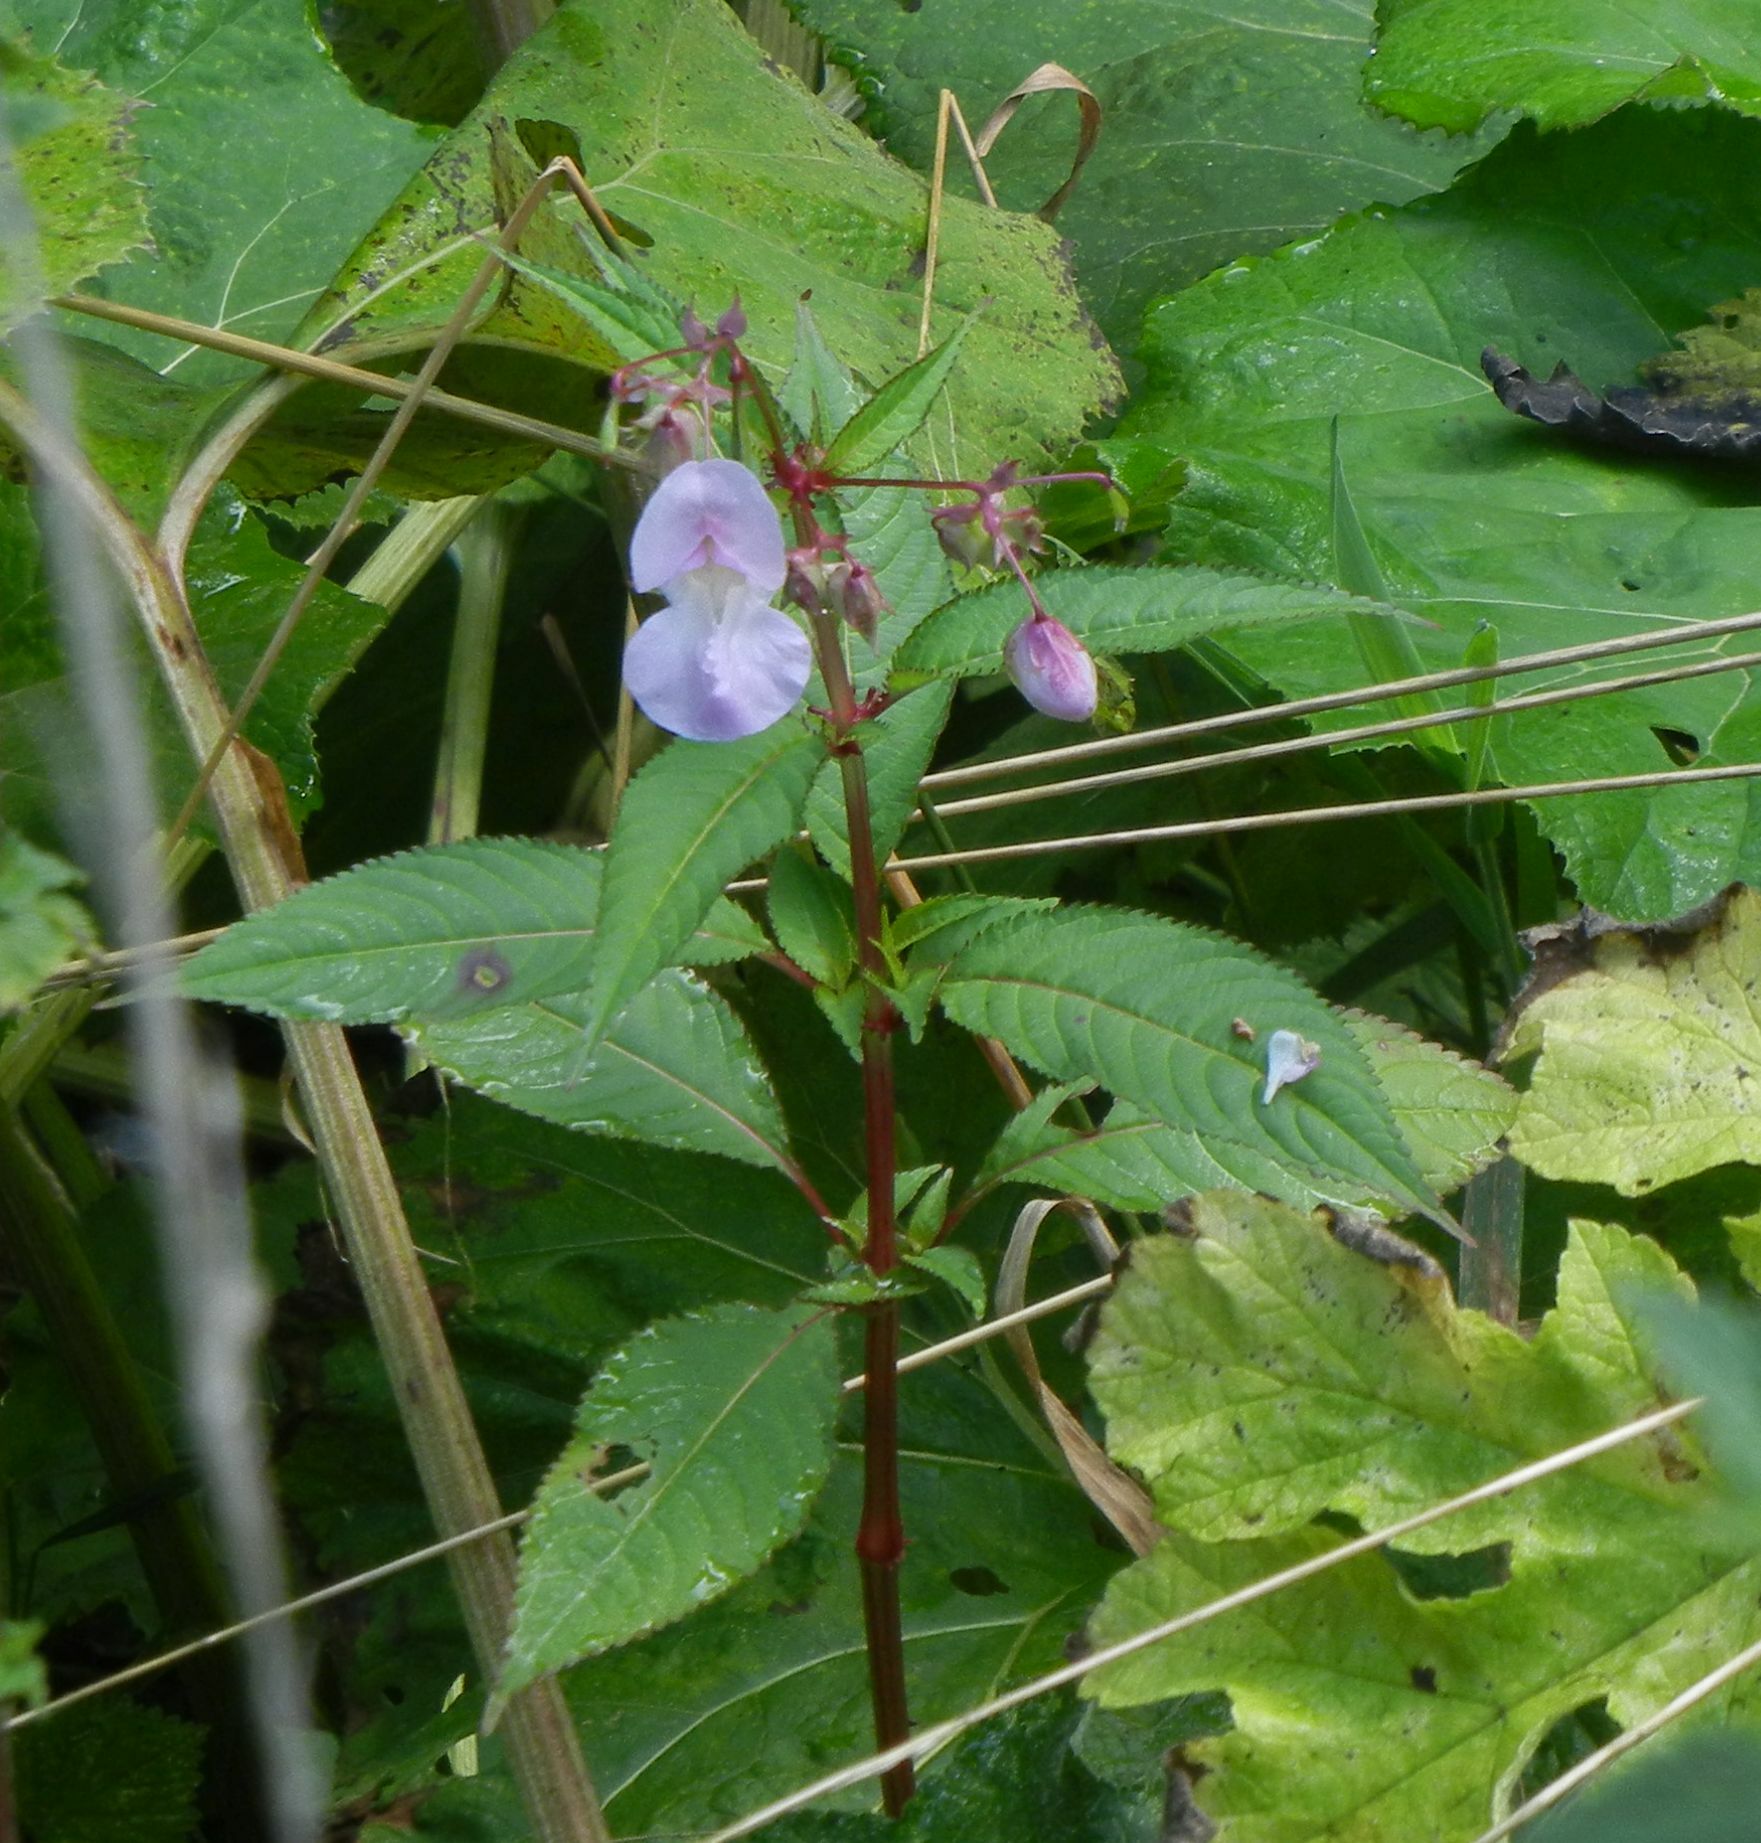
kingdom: Plantae
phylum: Tracheophyta
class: Magnoliopsida
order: Ericales
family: Balsaminaceae
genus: Impatiens
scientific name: Impatiens glandulifera
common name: Himalayan balsam
